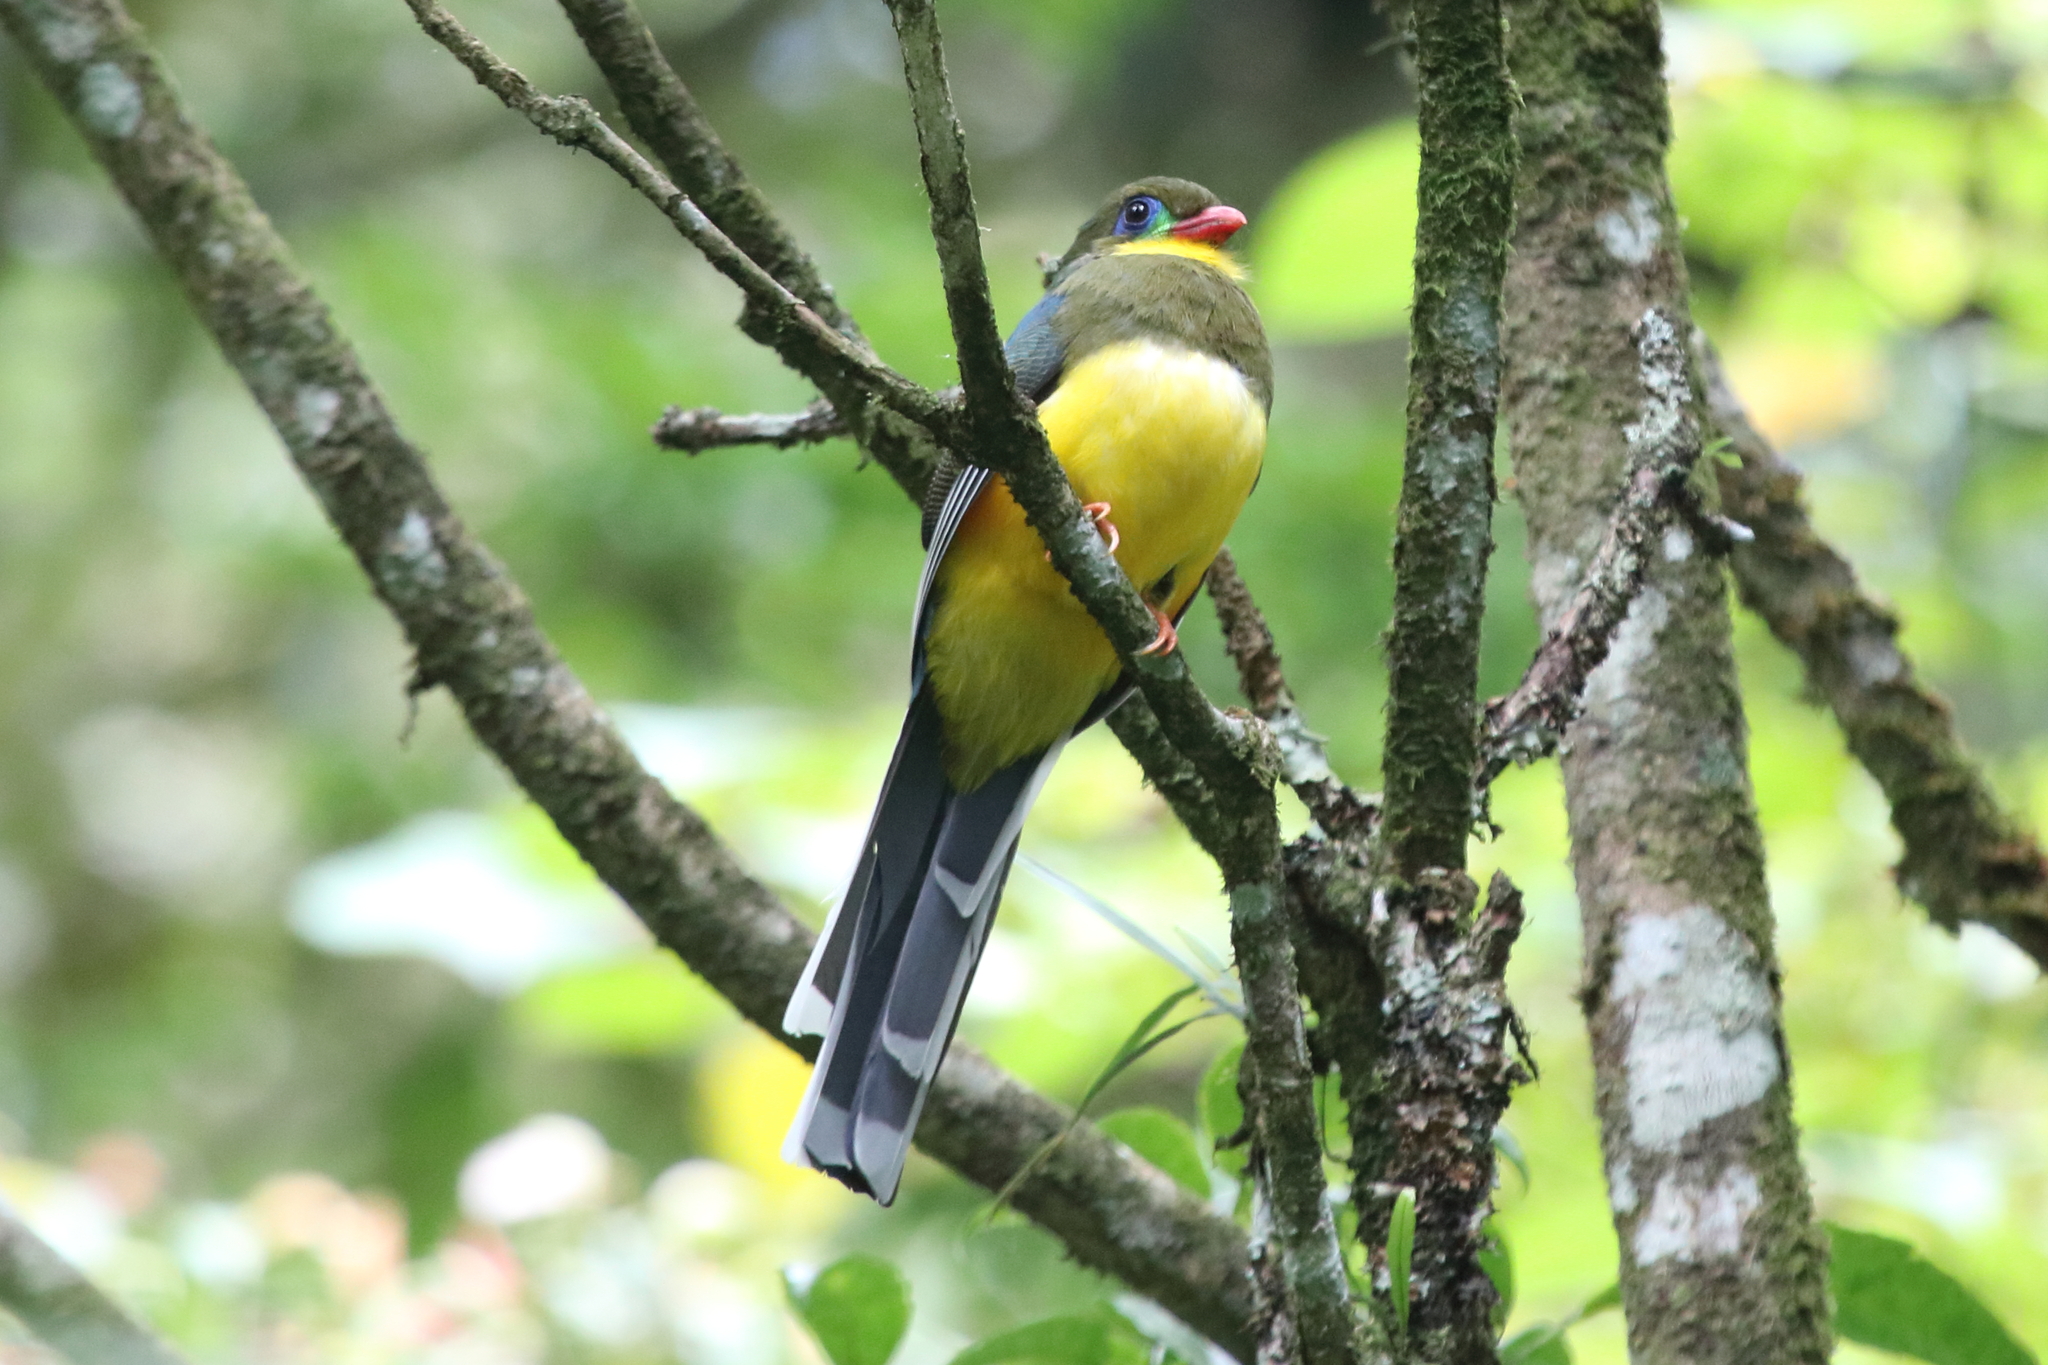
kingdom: Animalia
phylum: Chordata
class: Aves
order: Trogoniformes
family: Trogonidae
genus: Apalharpactes
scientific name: Apalharpactes reinwardtii
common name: Javan trogon
